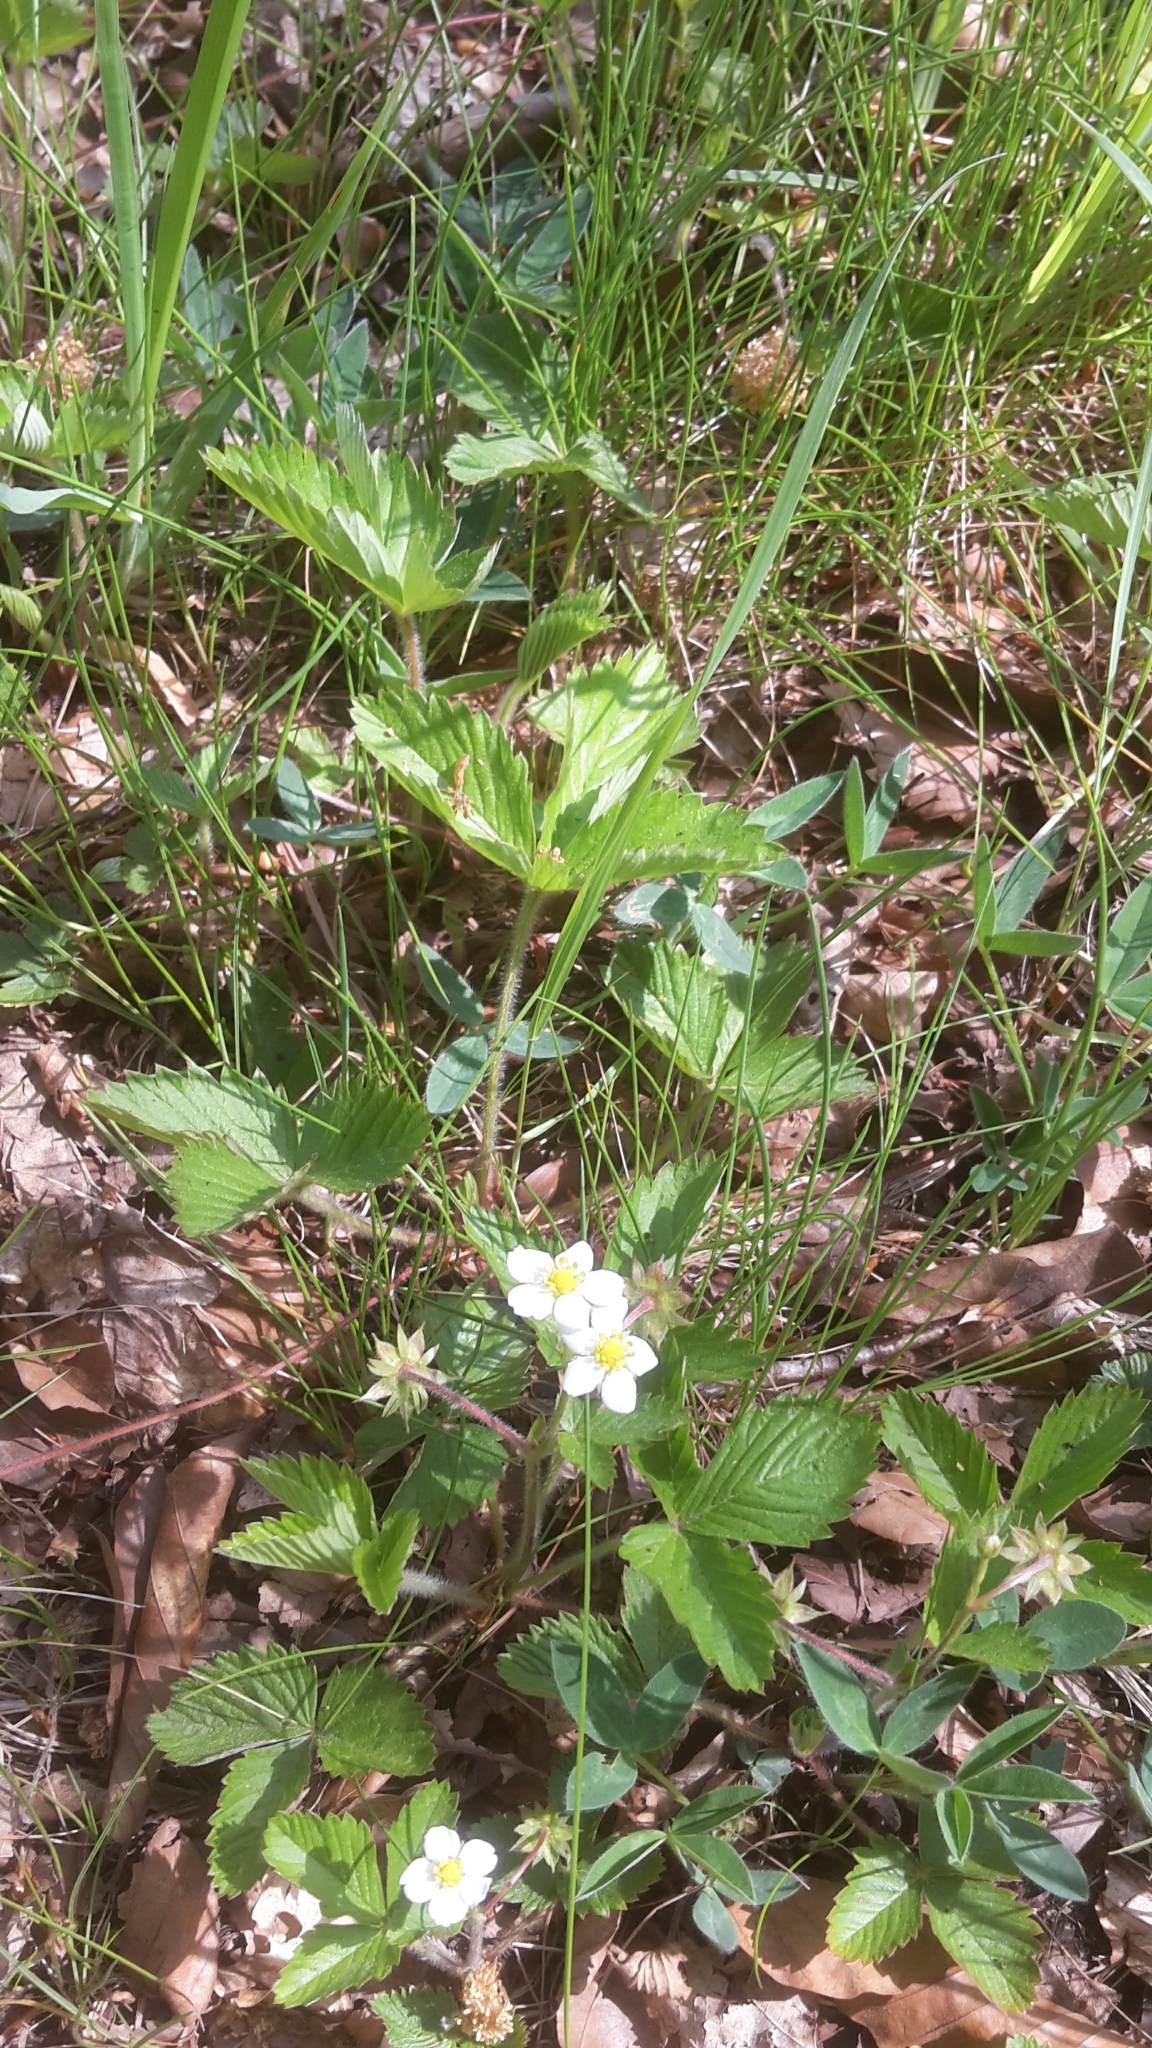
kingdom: Plantae
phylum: Tracheophyta
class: Magnoliopsida
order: Rosales
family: Rosaceae
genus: Fragaria
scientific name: Fragaria vesca
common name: Wild strawberry
